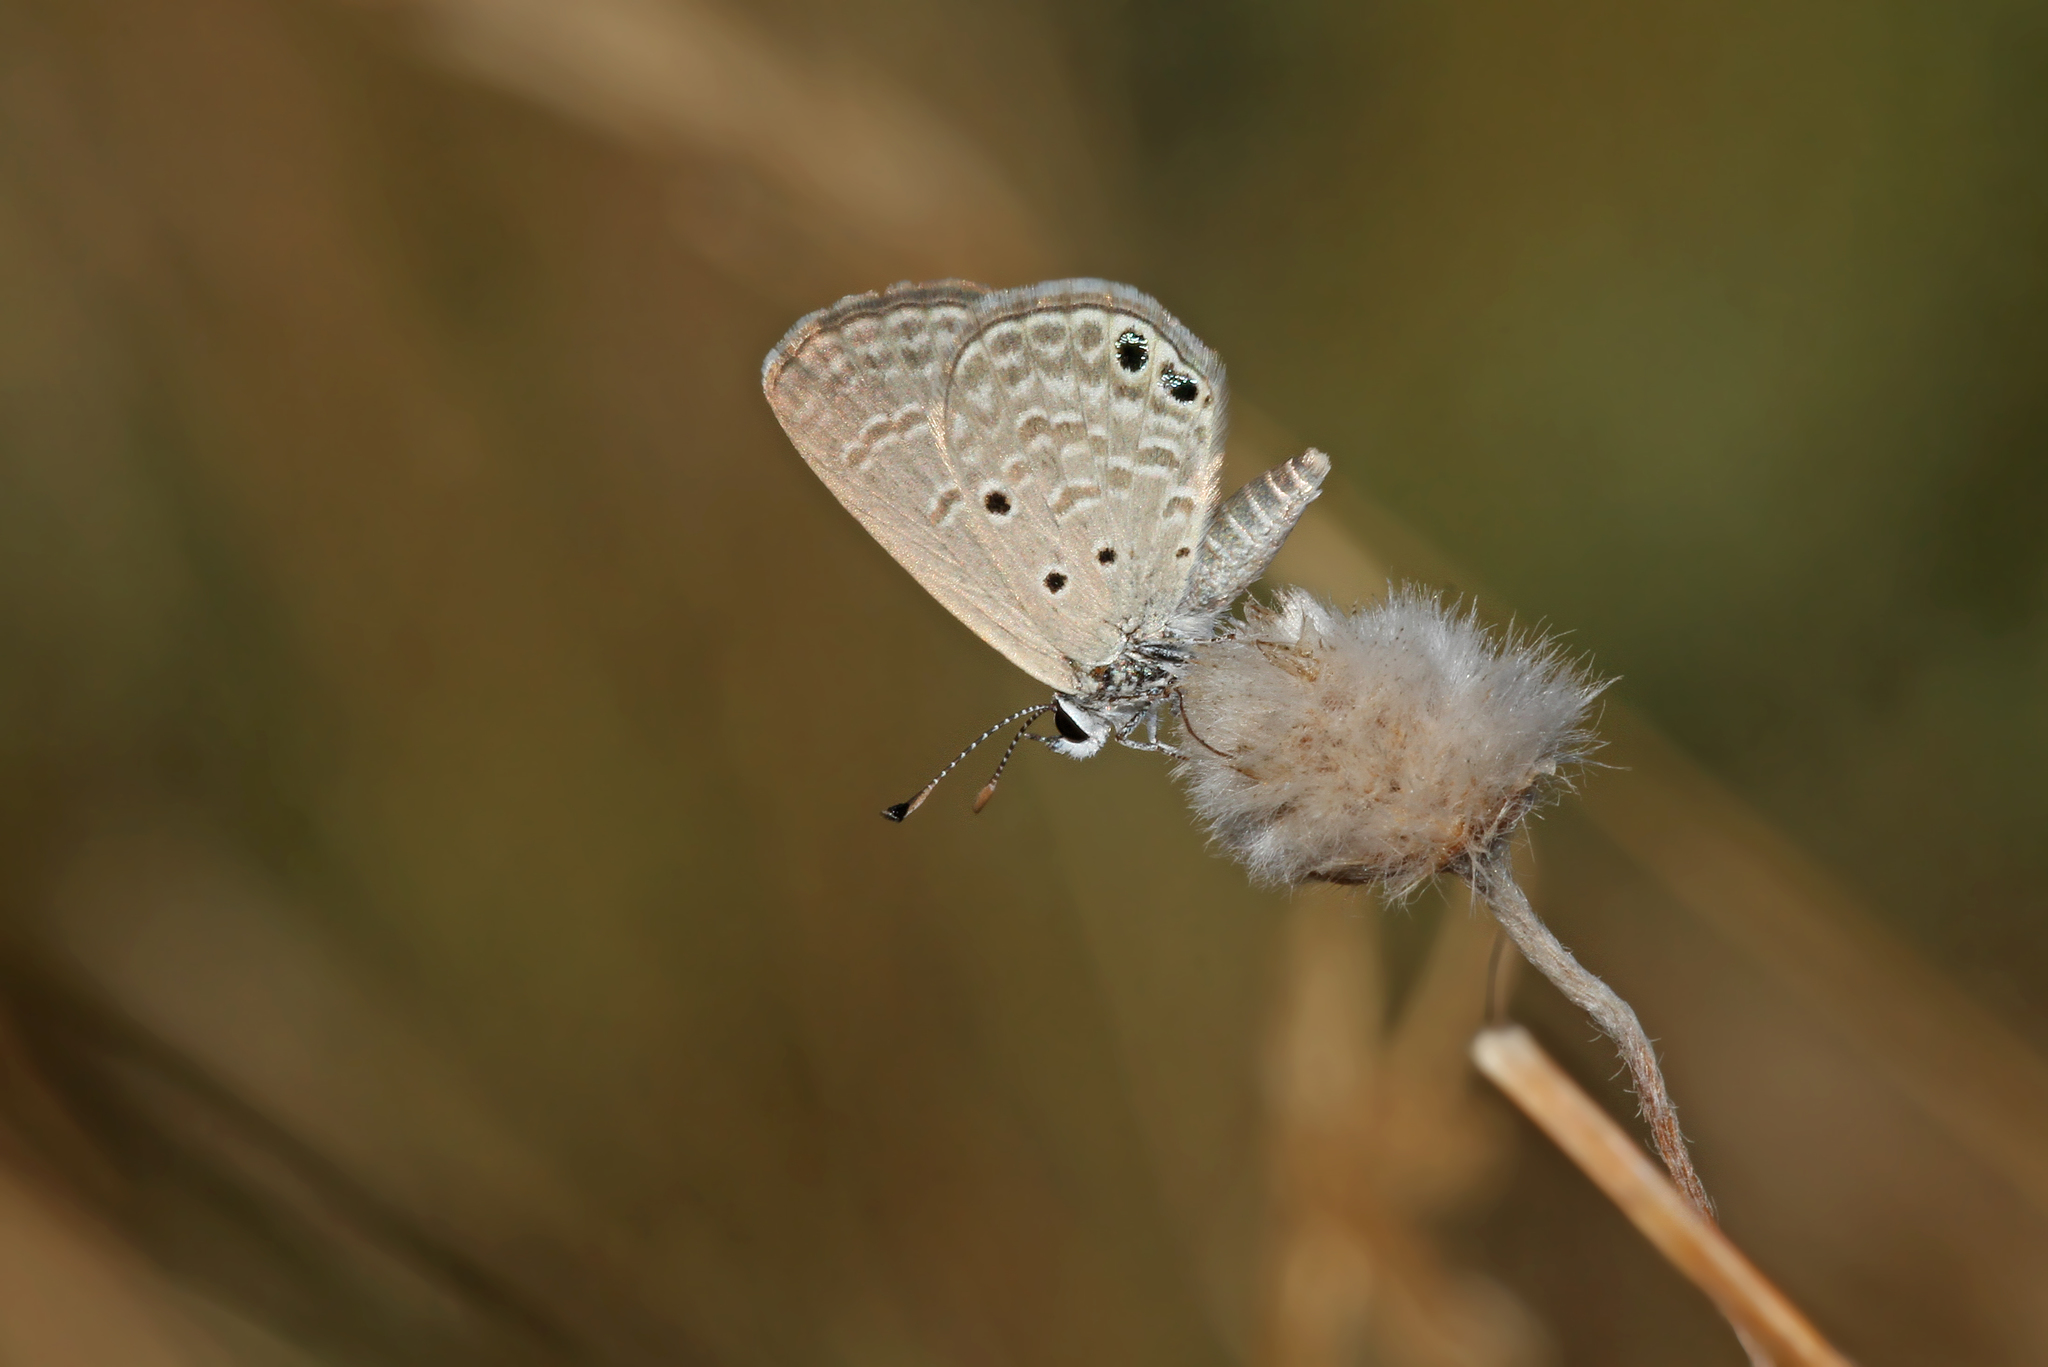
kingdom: Animalia
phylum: Arthropoda
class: Insecta
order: Lepidoptera
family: Lycaenidae
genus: Luthrodes
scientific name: Luthrodes galba
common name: Small desert blue
